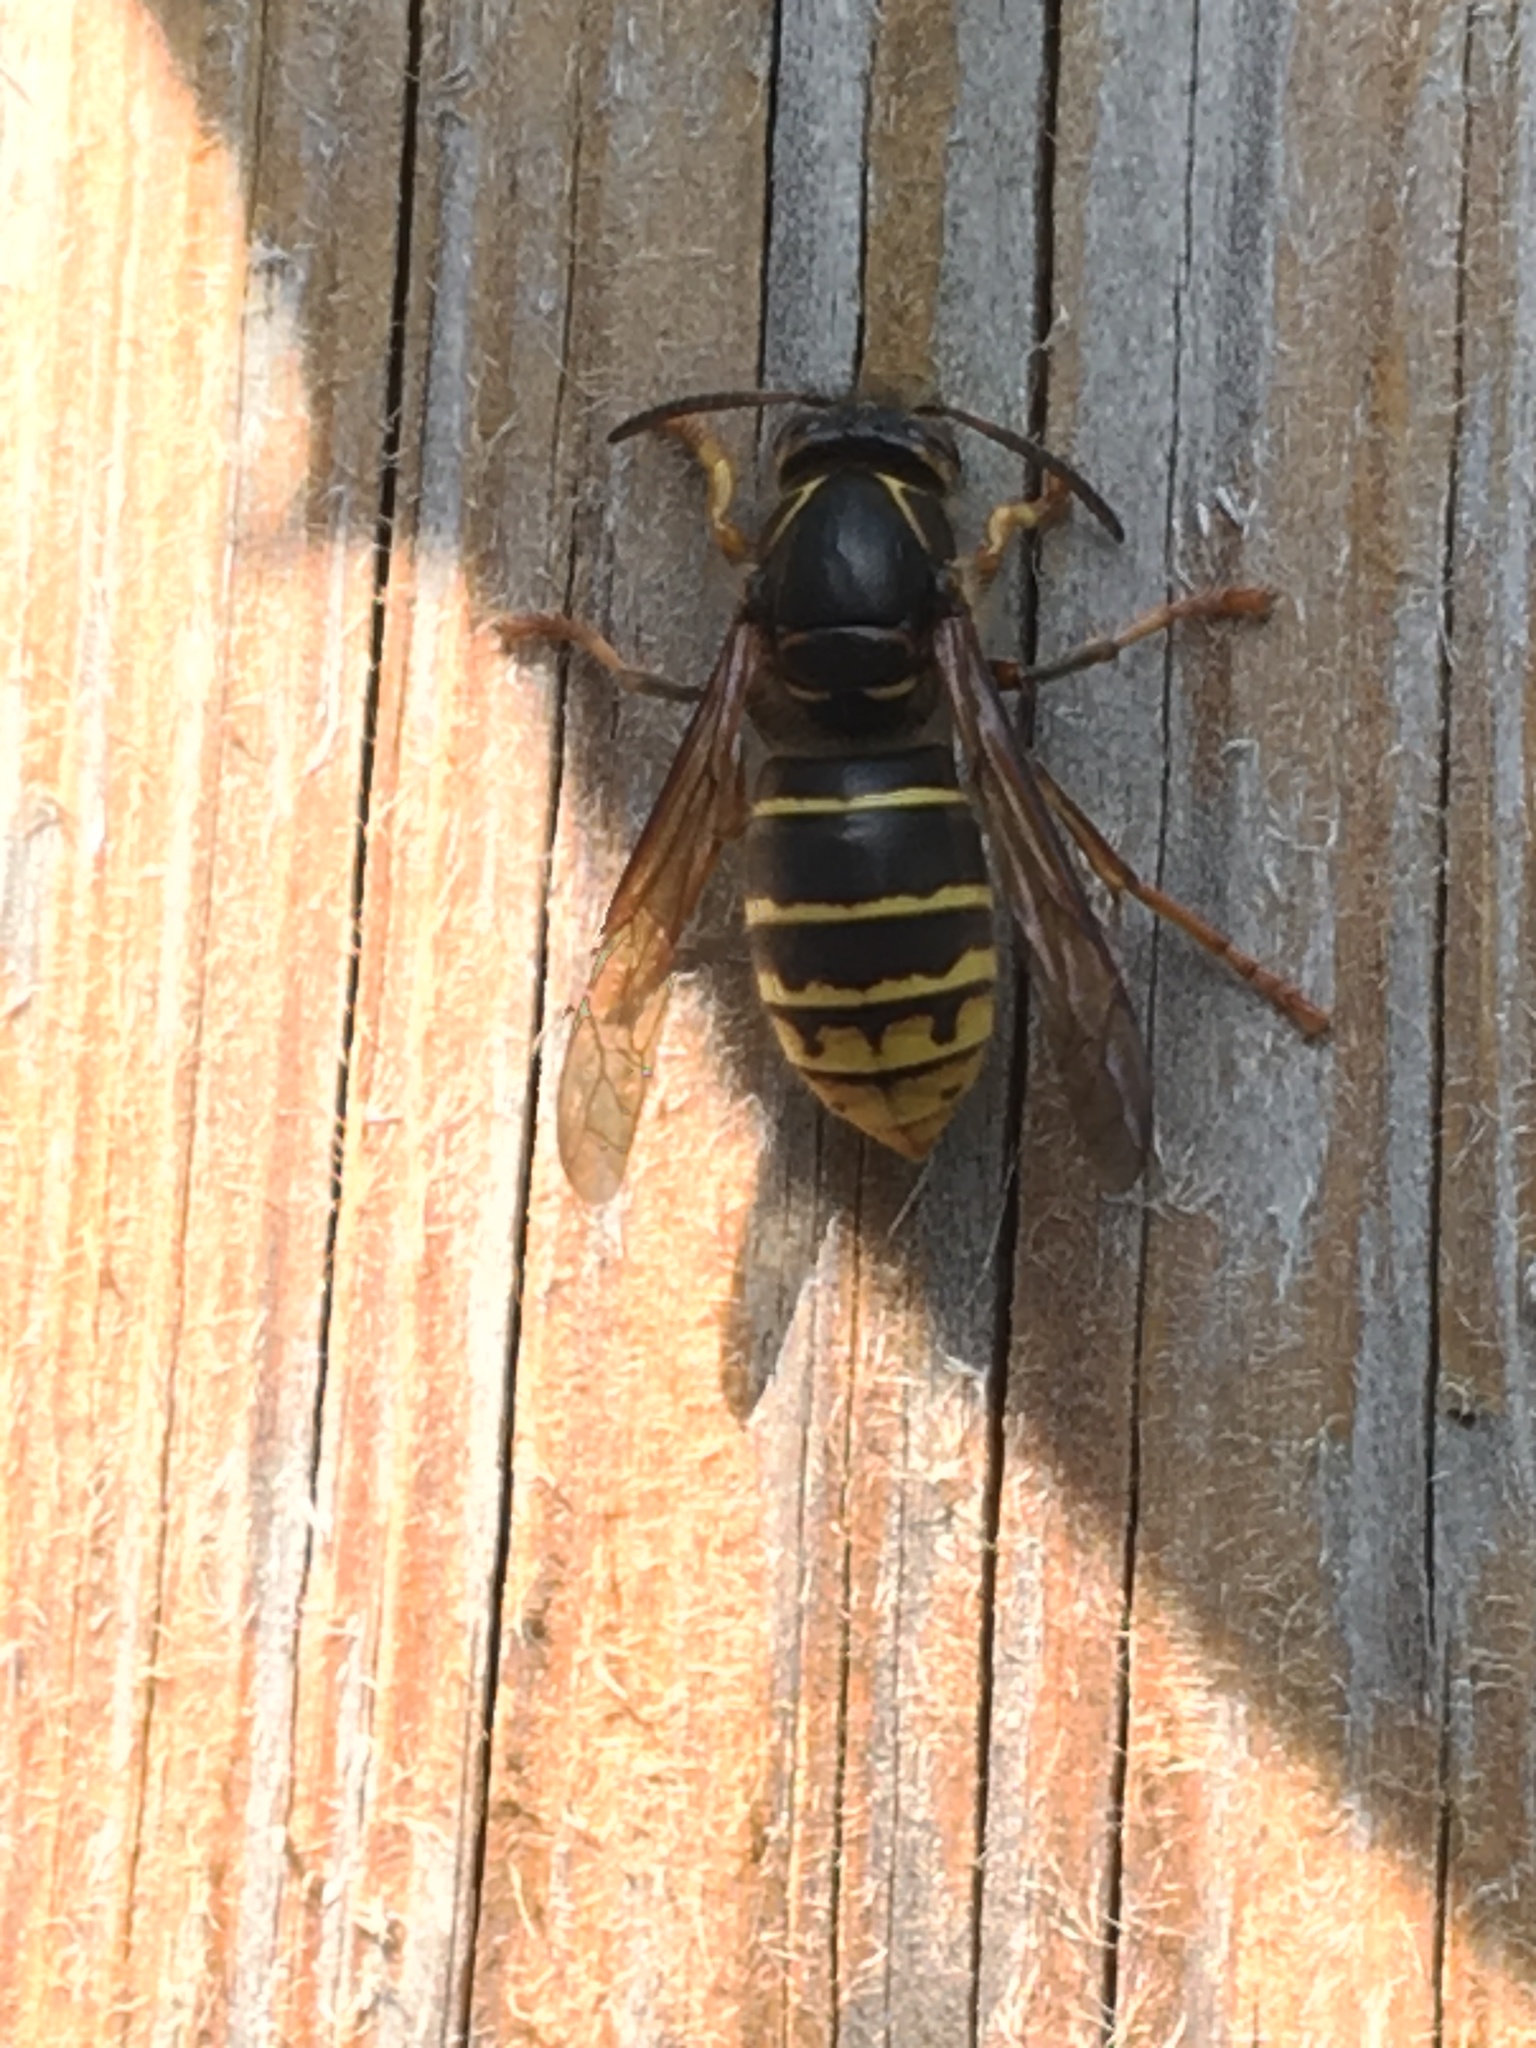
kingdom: Animalia
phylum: Arthropoda
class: Insecta
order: Hymenoptera
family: Vespidae
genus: Dolichovespula
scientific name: Dolichovespula media
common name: Median wasp
